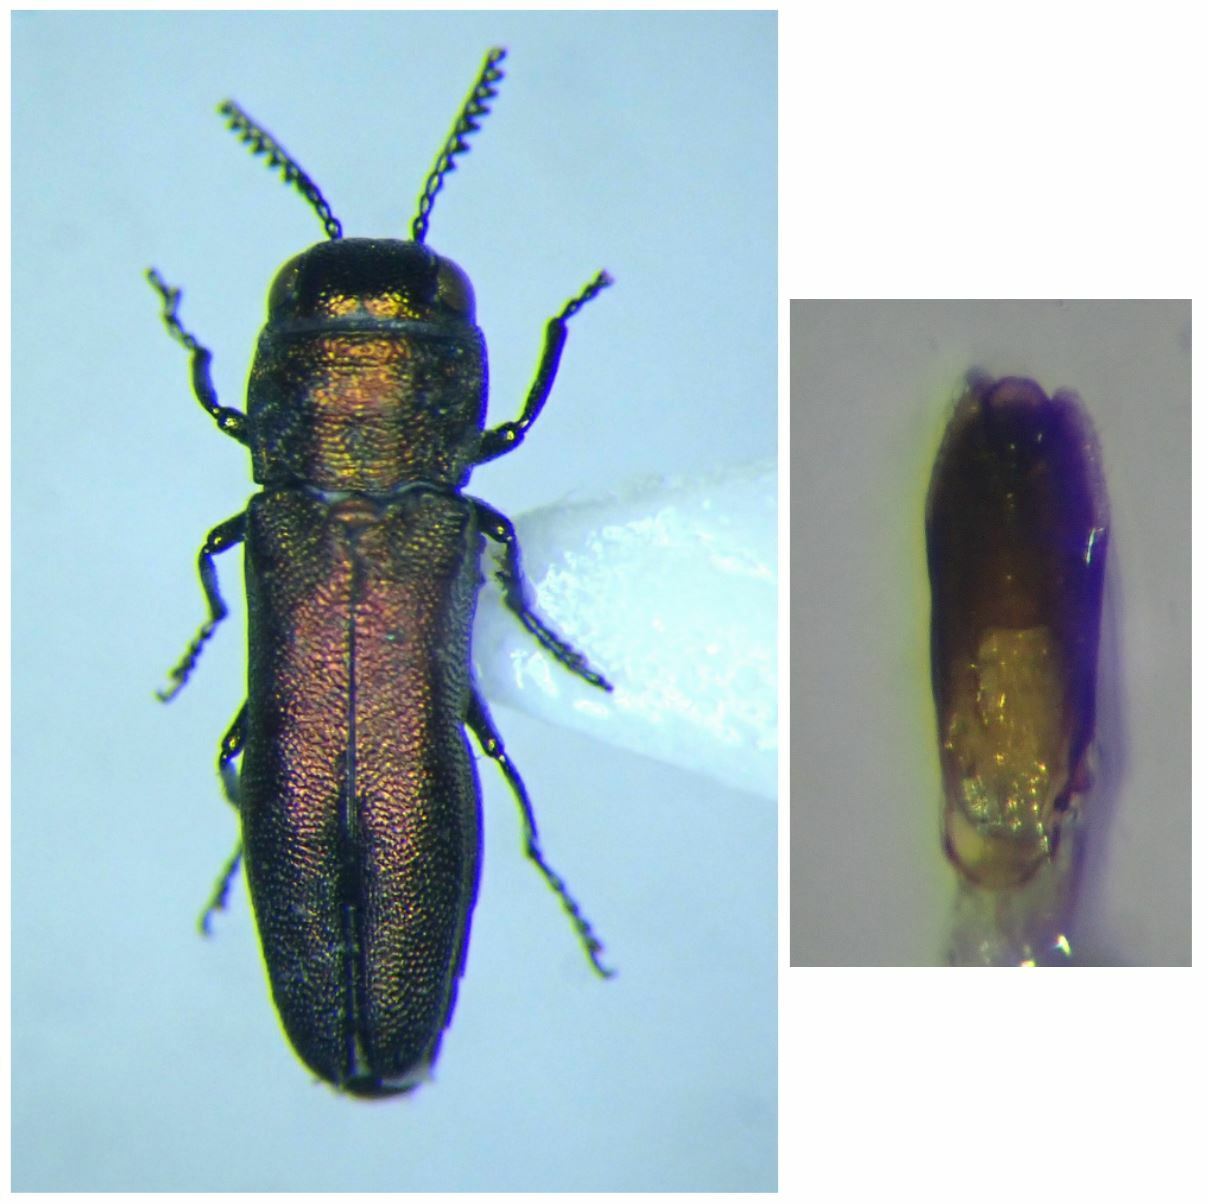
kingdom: Animalia
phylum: Arthropoda
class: Insecta
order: Coleoptera
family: Buprestidae
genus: Agrilus
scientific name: Agrilus hyperici
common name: St. john's wort root borer
